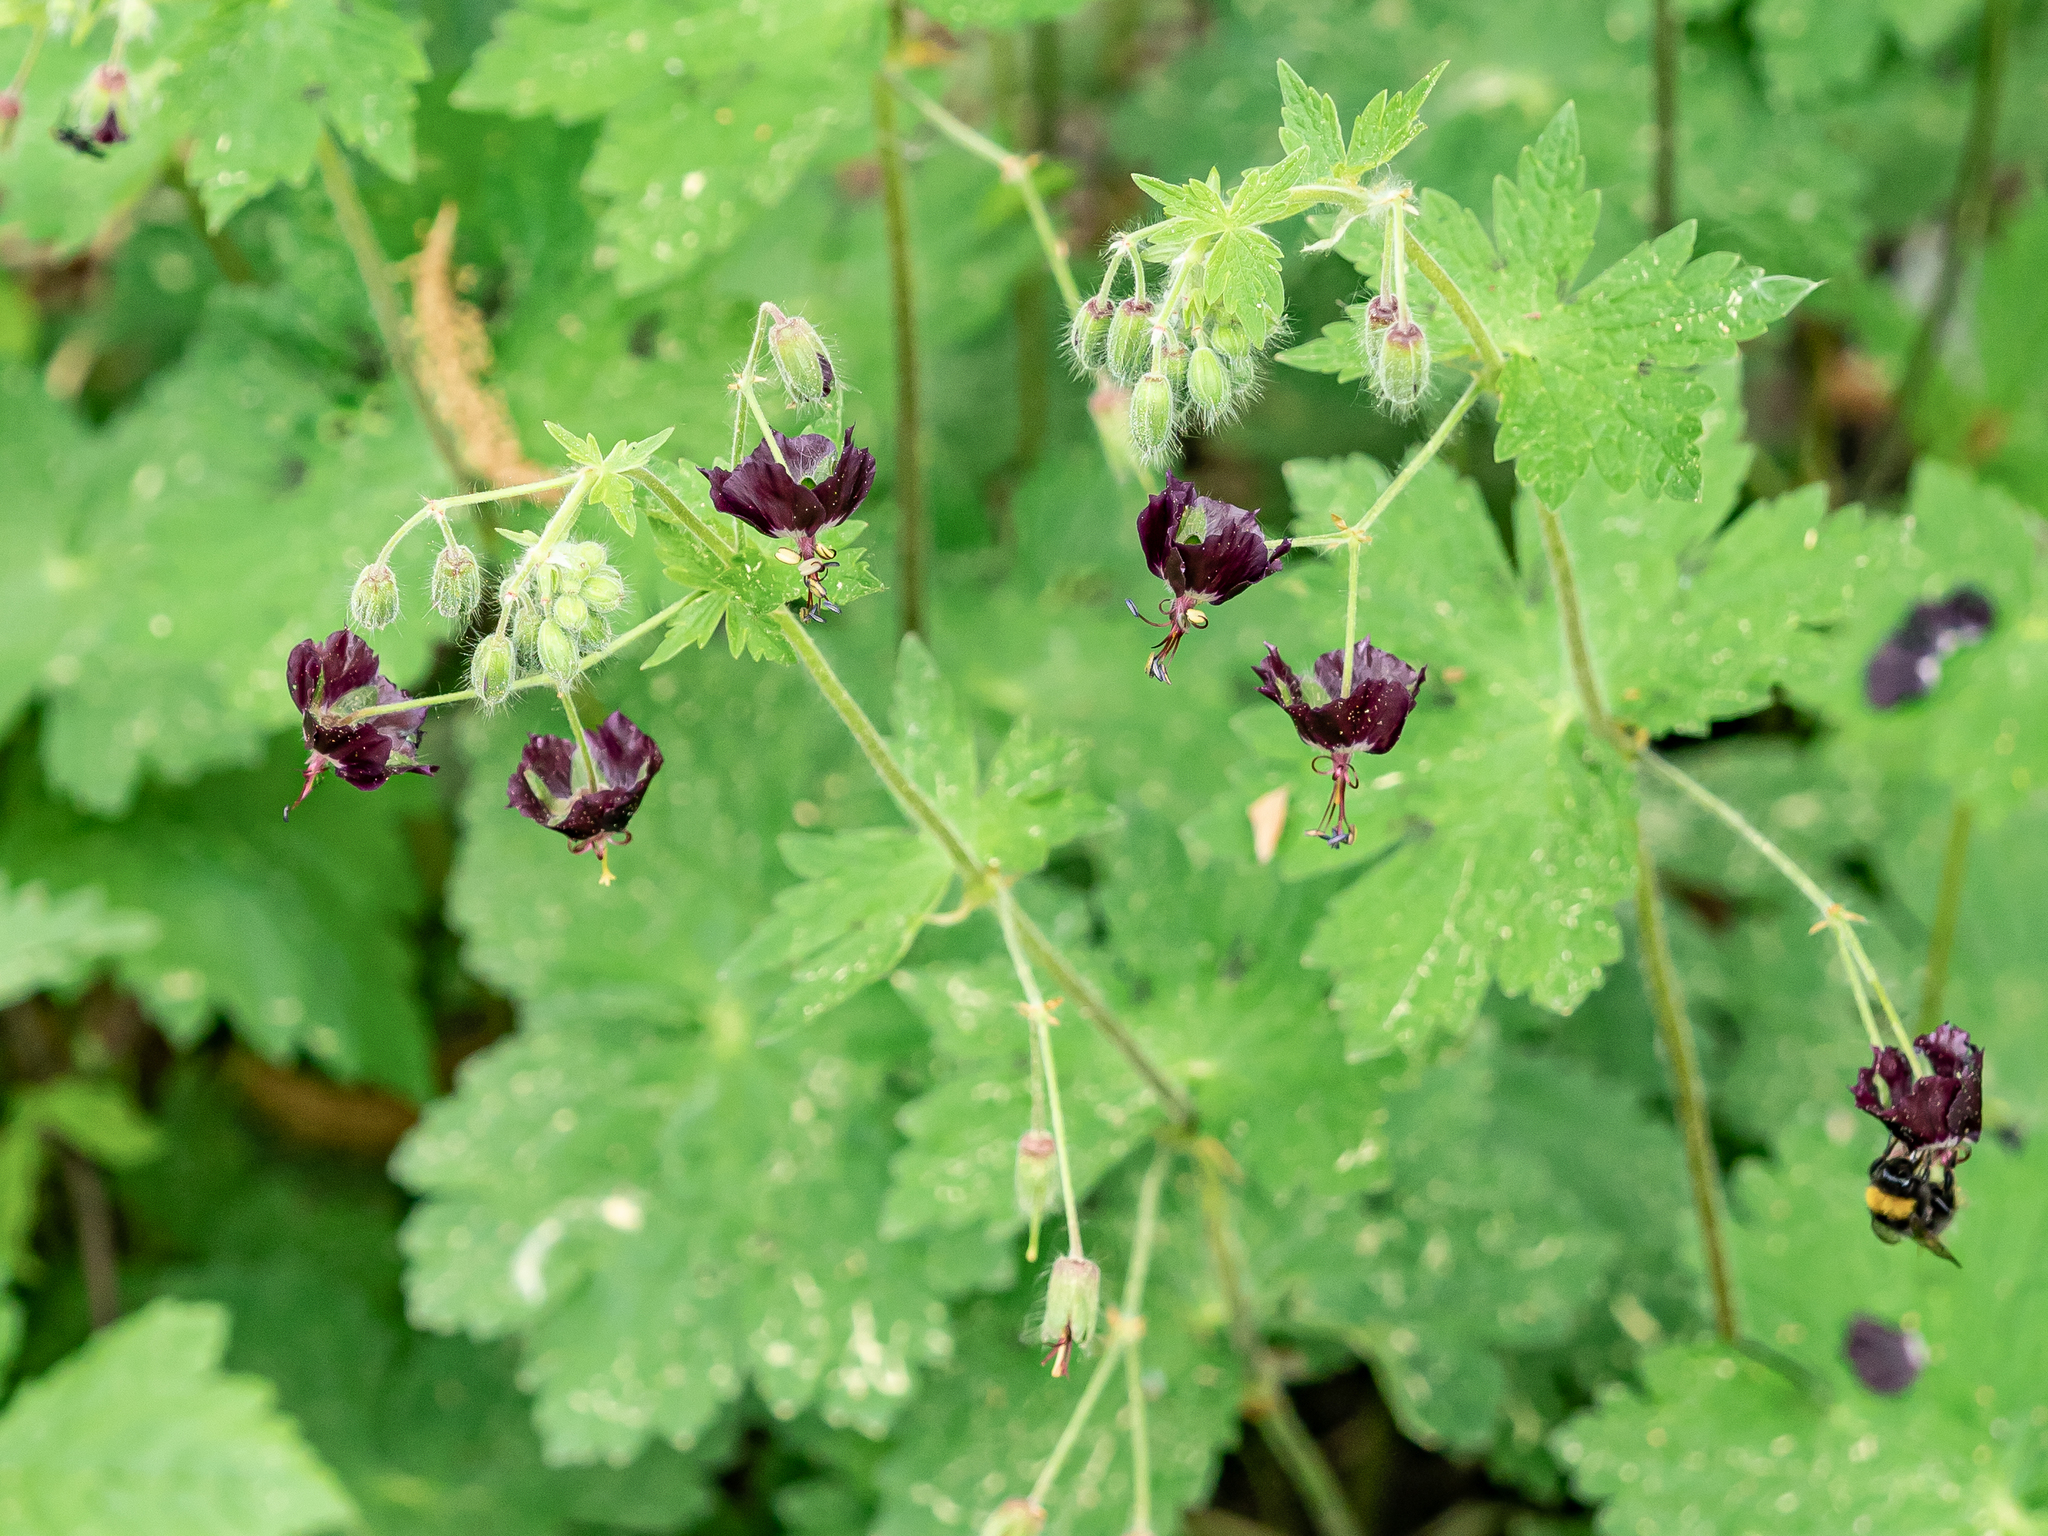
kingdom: Plantae
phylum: Tracheophyta
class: Magnoliopsida
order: Geraniales
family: Geraniaceae
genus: Geranium
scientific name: Geranium phaeum
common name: Dusky crane's-bill
